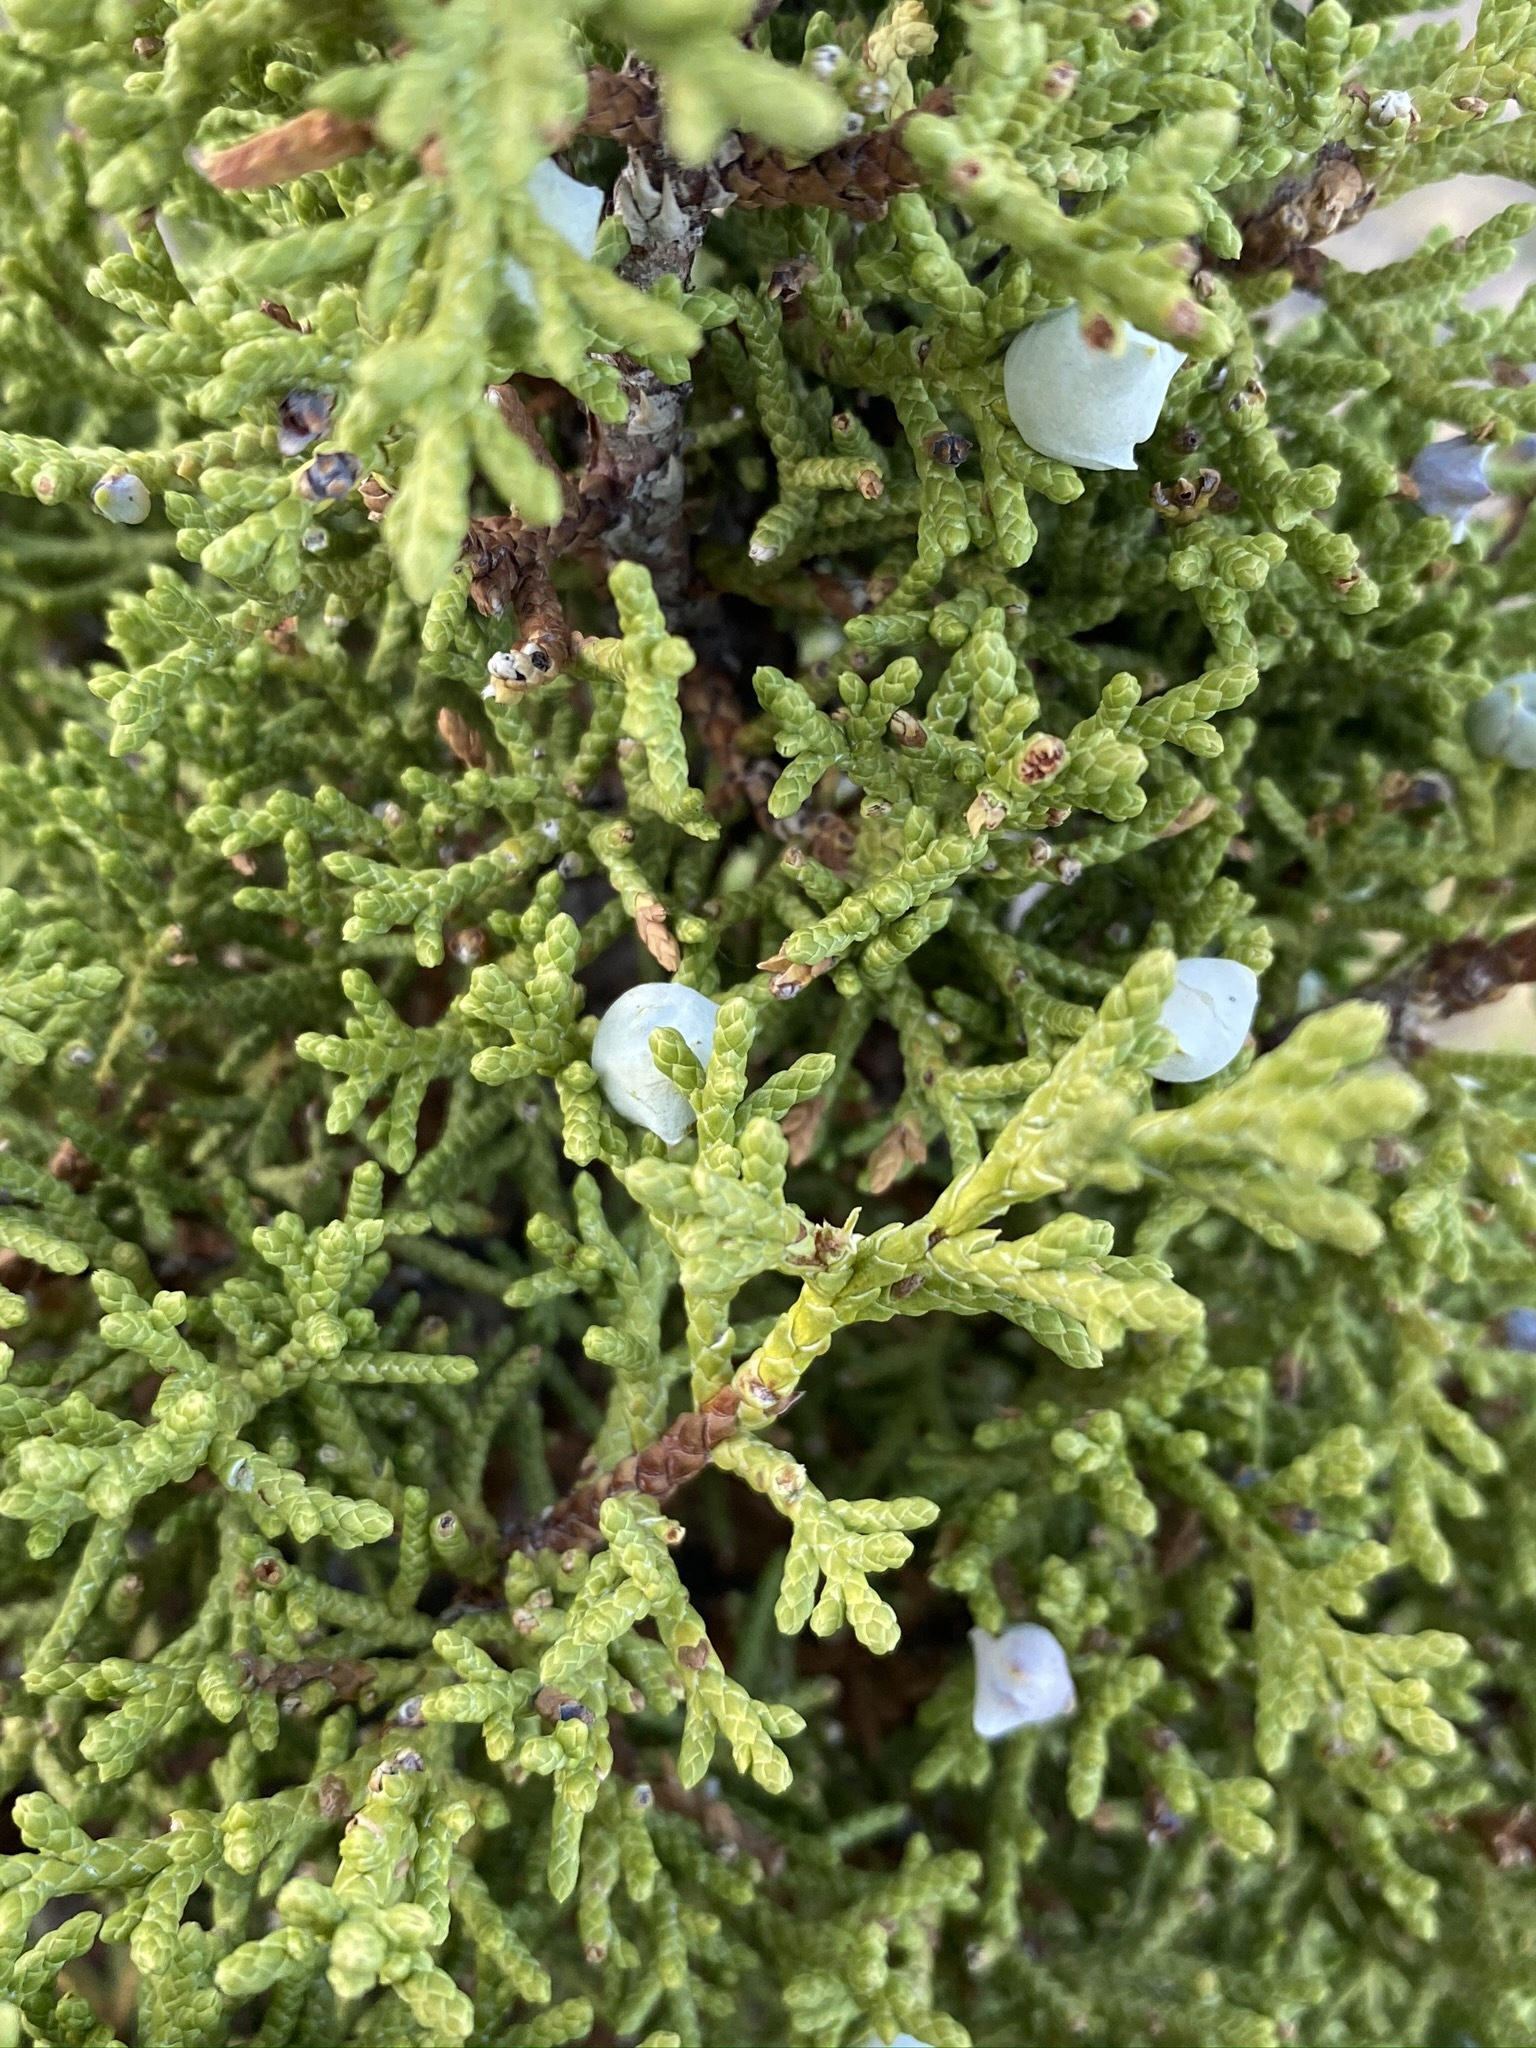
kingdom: Plantae
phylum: Tracheophyta
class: Pinopsida
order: Pinales
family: Cupressaceae
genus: Juniperus
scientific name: Juniperus osteosperma
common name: Utah juniper
